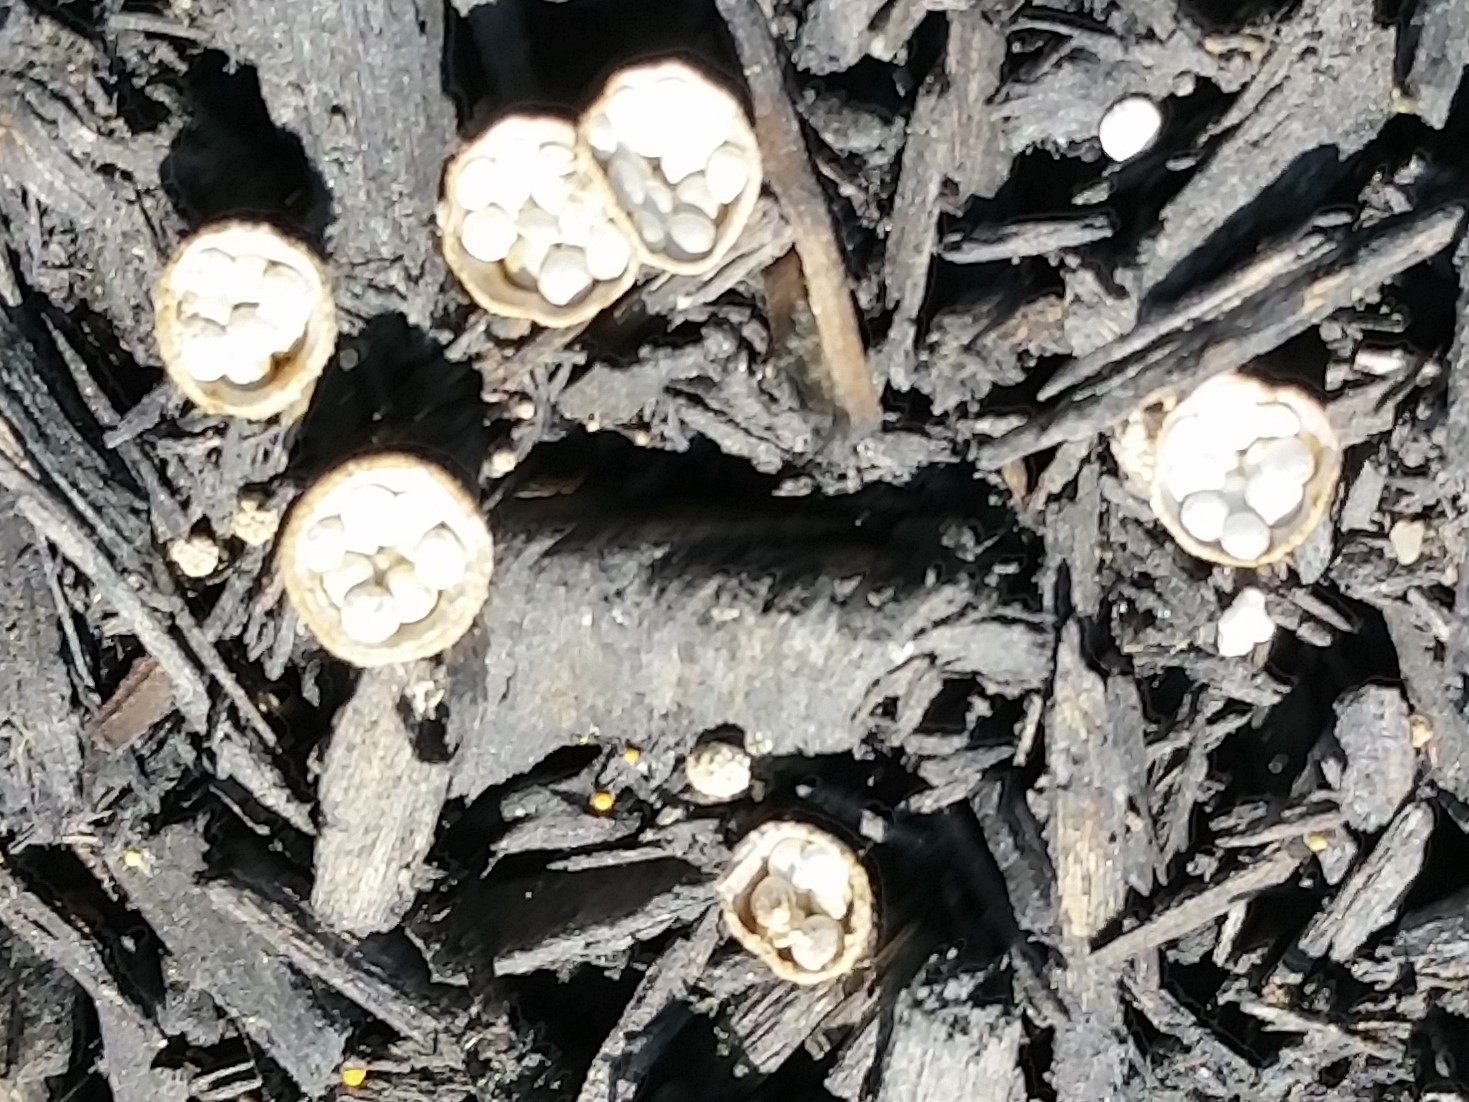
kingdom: Fungi
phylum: Basidiomycota
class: Agaricomycetes
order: Agaricales
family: Nidulariaceae
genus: Crucibulum
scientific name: Crucibulum laeve
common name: Common bird's nest
